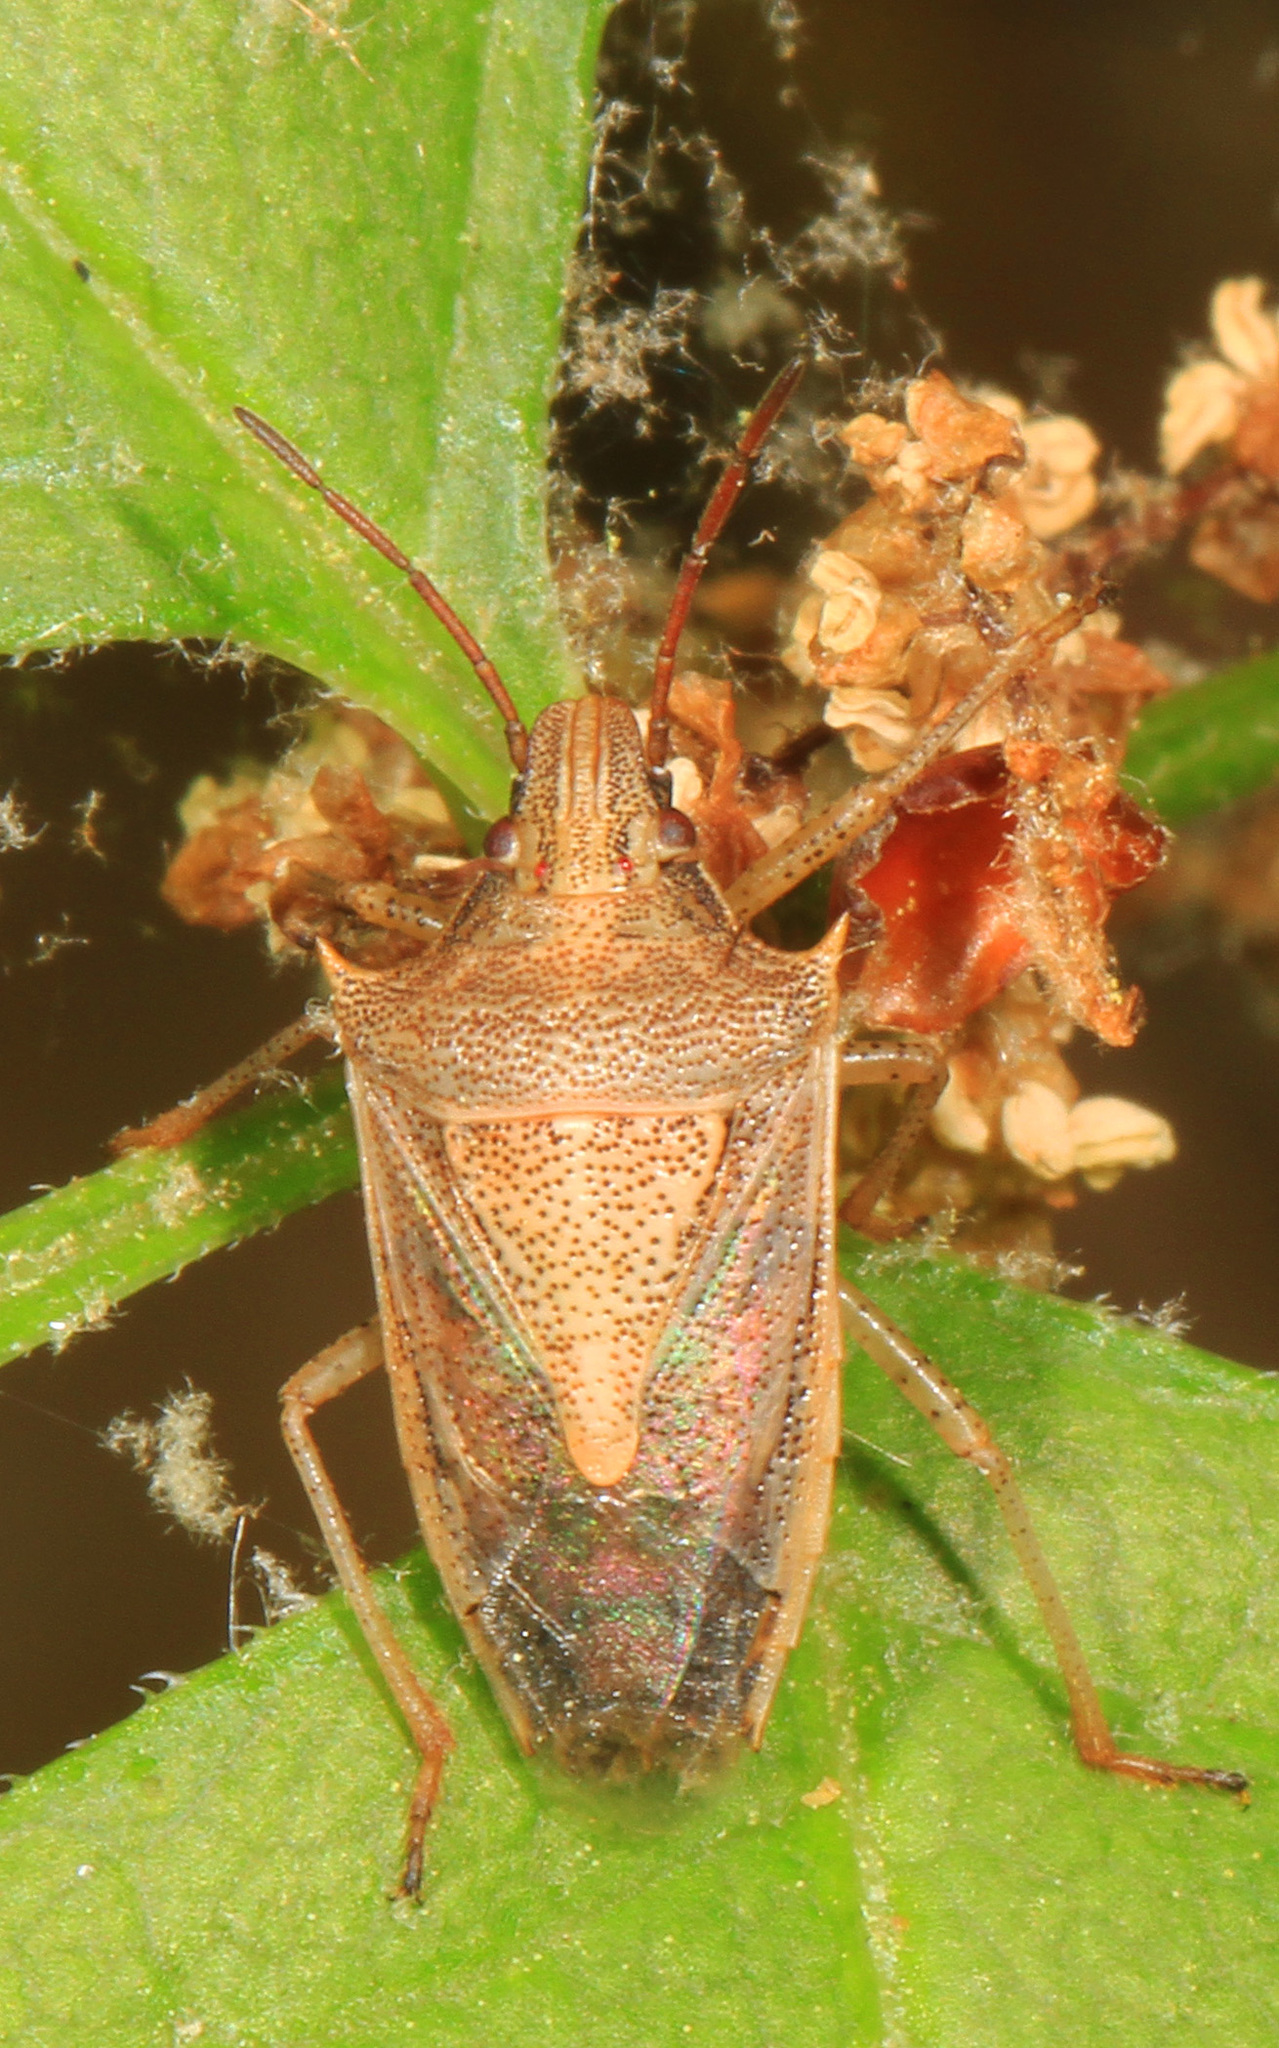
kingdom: Animalia
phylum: Arthropoda
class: Insecta
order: Hemiptera
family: Pentatomidae
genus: Oebalus
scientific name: Oebalus pugnax
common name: Rice stink bug
